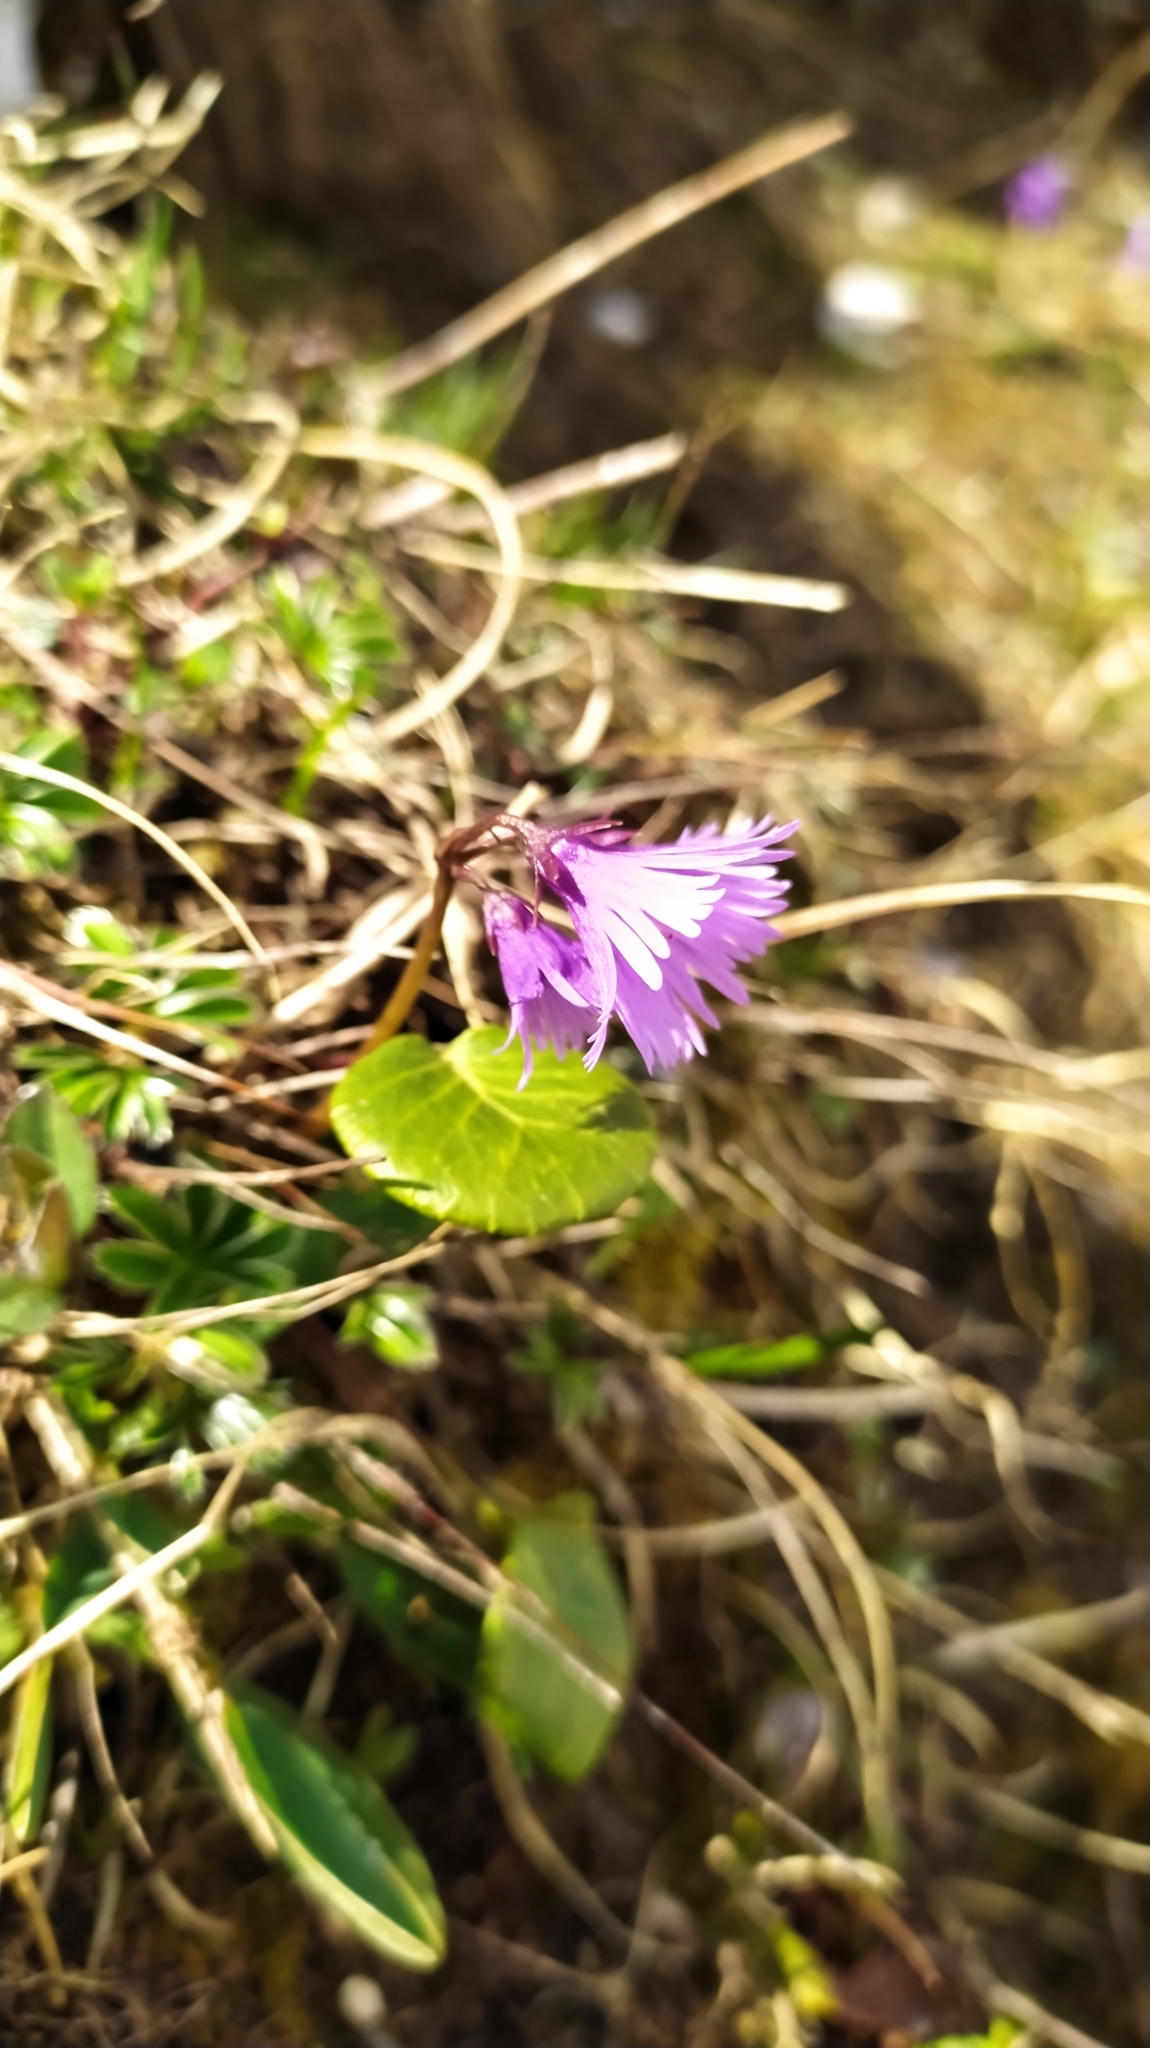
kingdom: Plantae
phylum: Tracheophyta
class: Magnoliopsida
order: Ericales
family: Primulaceae
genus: Soldanella
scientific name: Soldanella alpina
